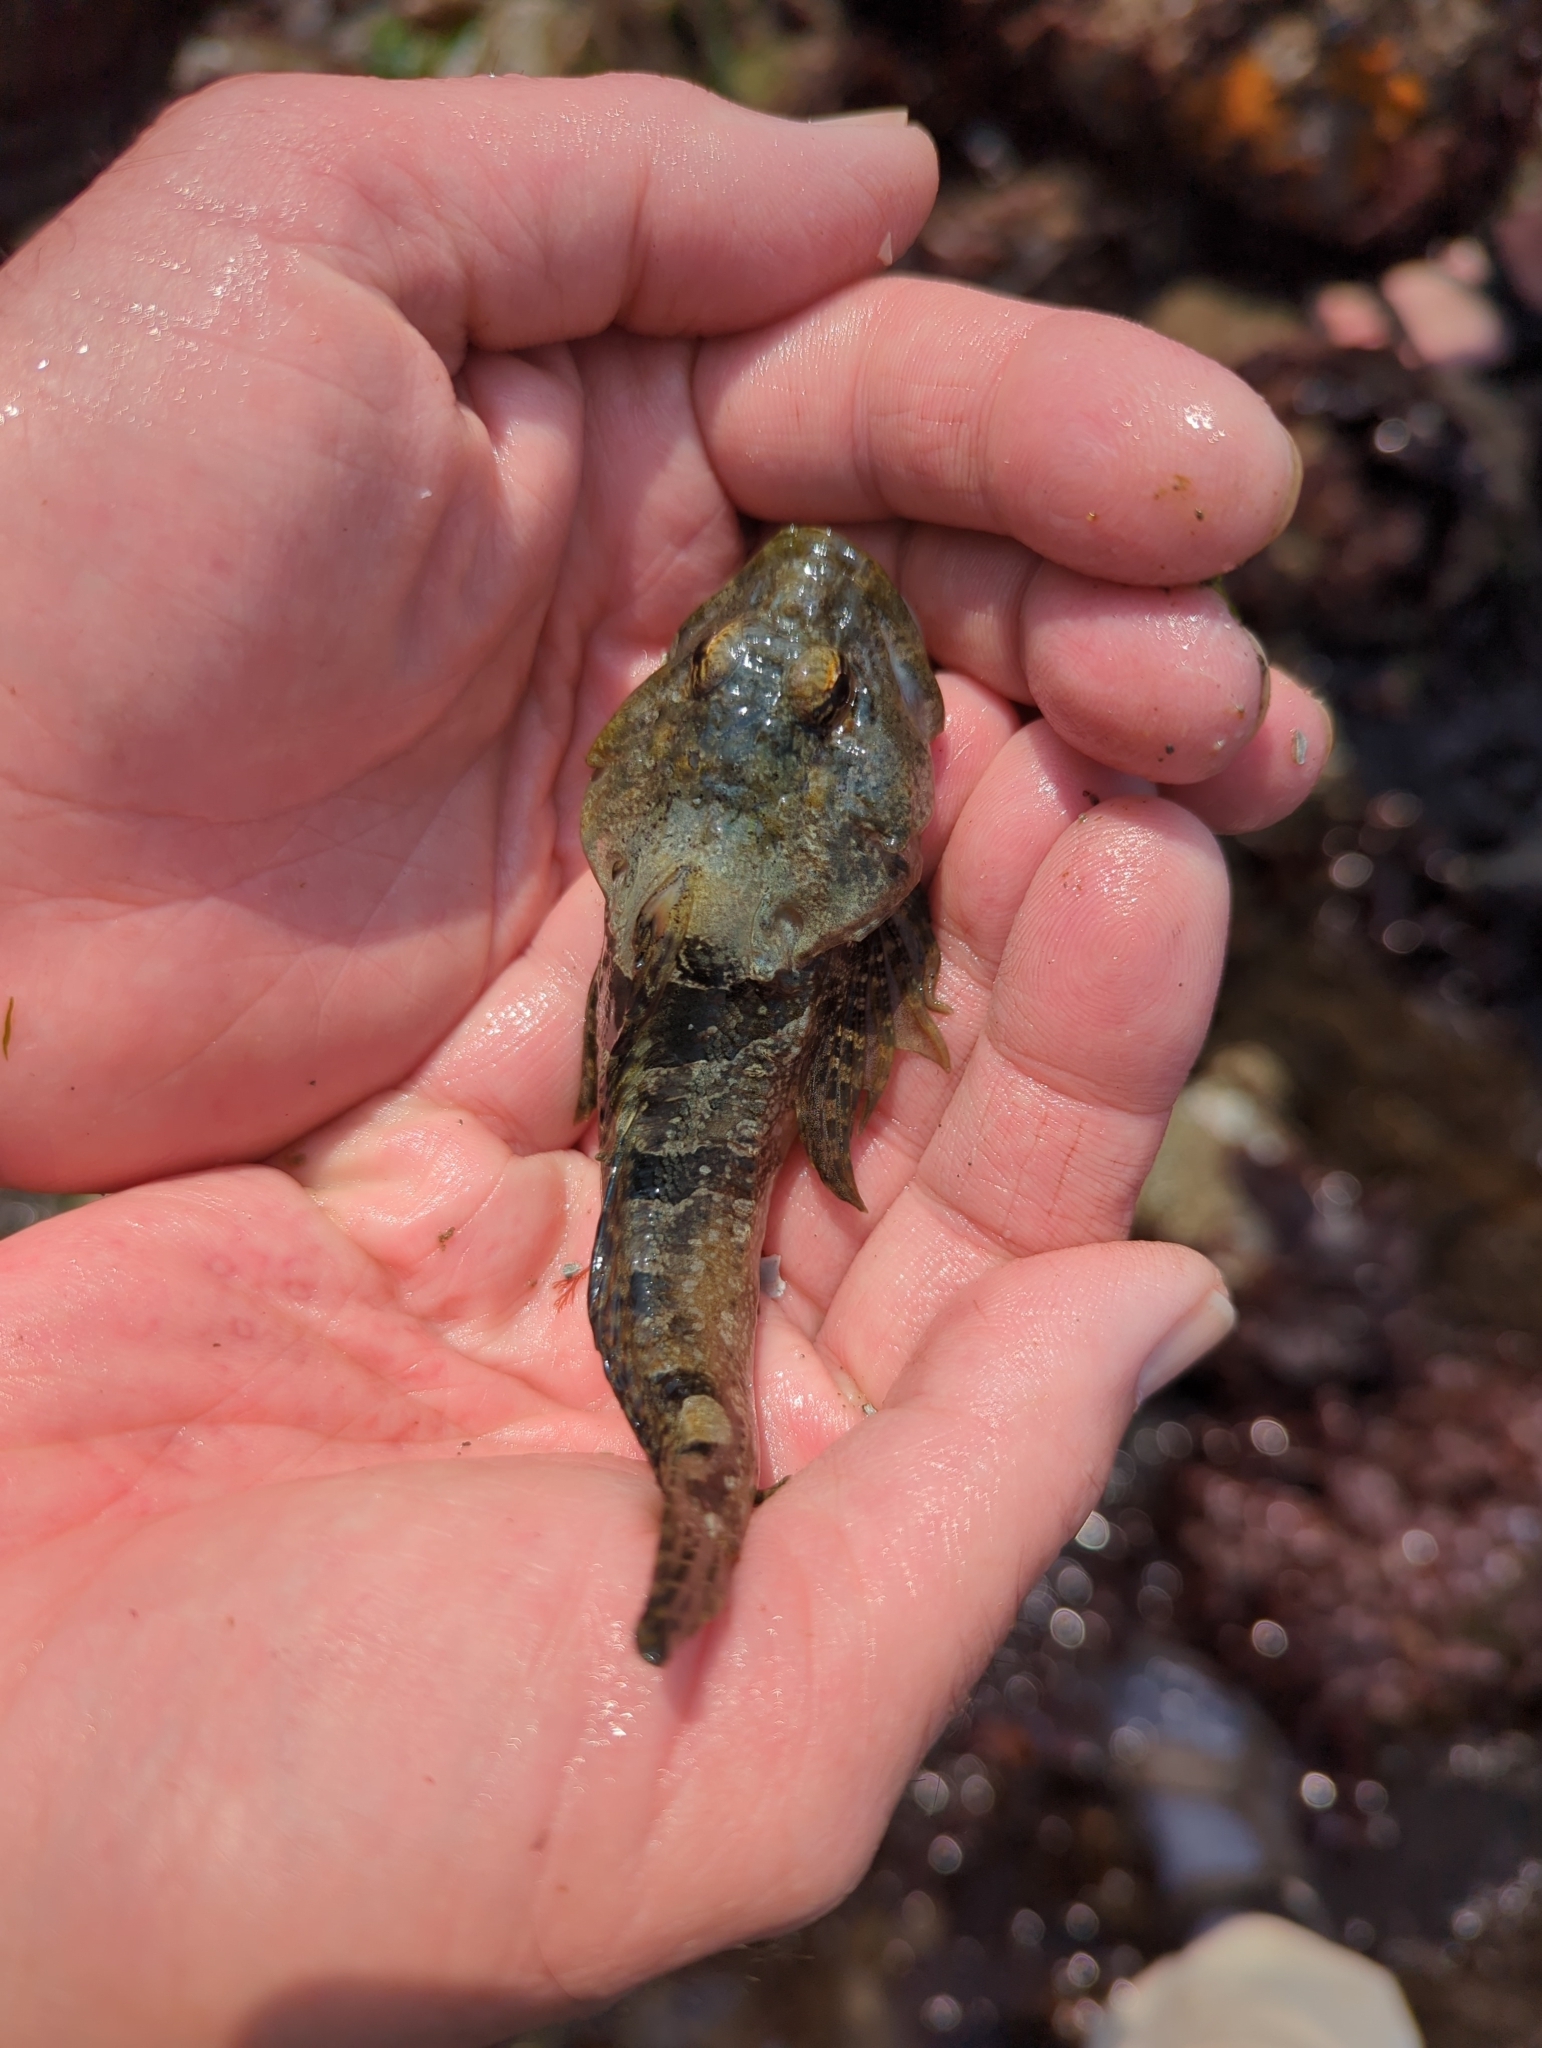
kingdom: Animalia
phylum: Chordata
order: Scorpaeniformes
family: Cottidae
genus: Artedius
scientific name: Artedius lateralis
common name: Smooth-head sculpin
